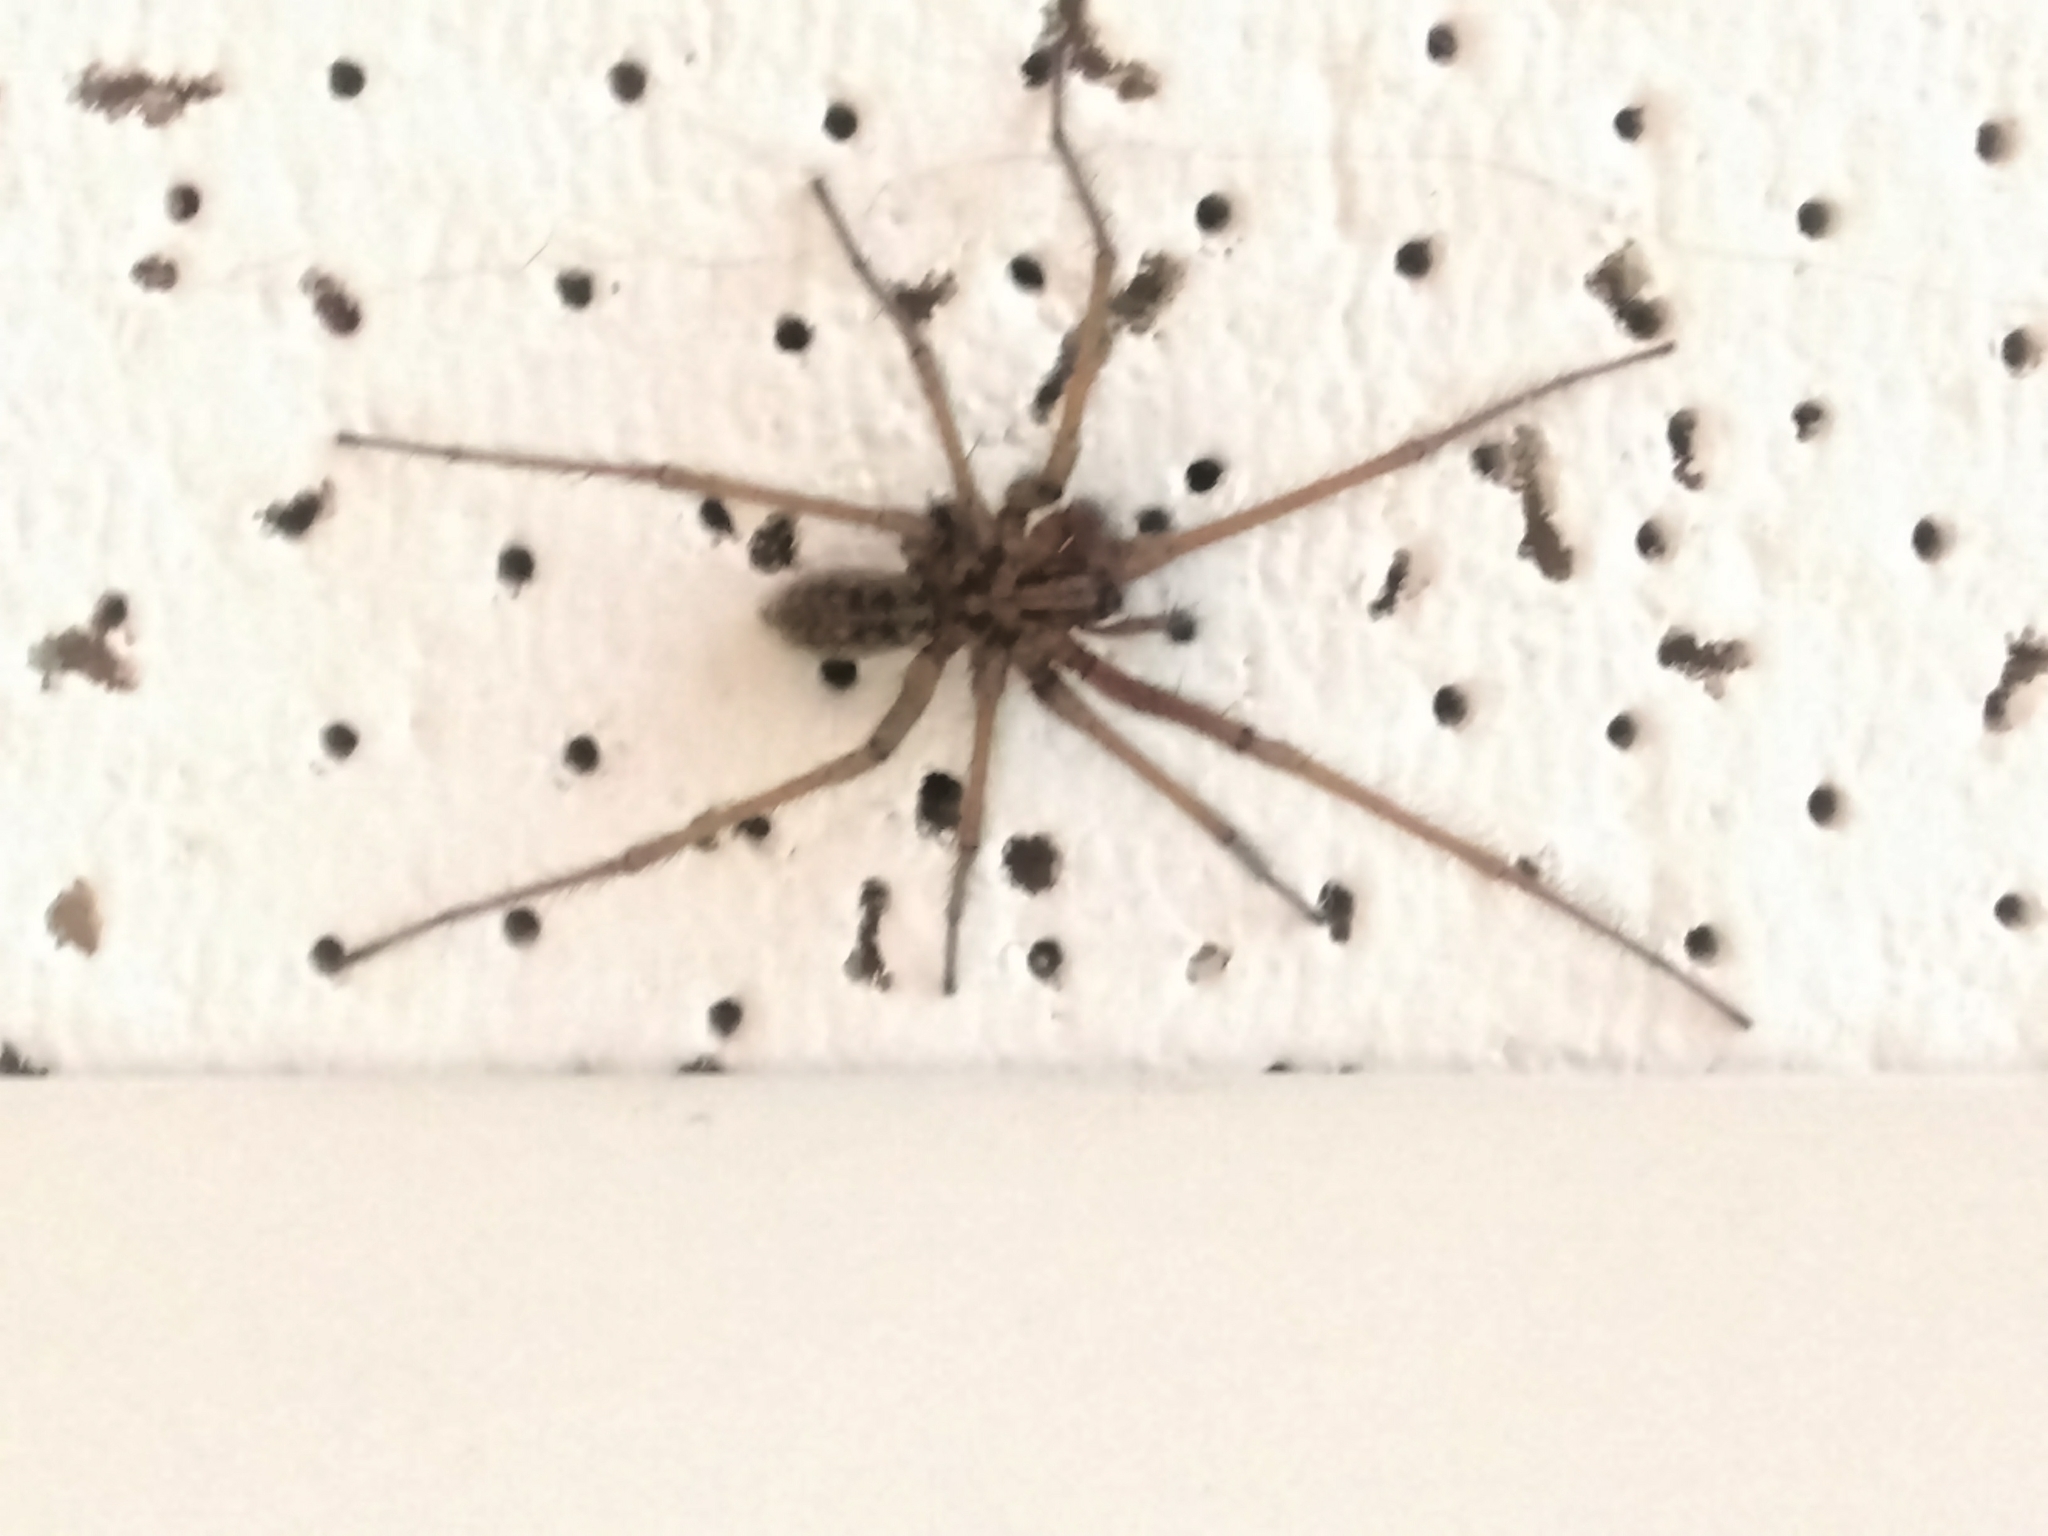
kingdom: Animalia
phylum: Arthropoda
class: Arachnida
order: Araneae
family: Agelenidae
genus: Eratigena
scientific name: Eratigena duellica
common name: Giant house spider
